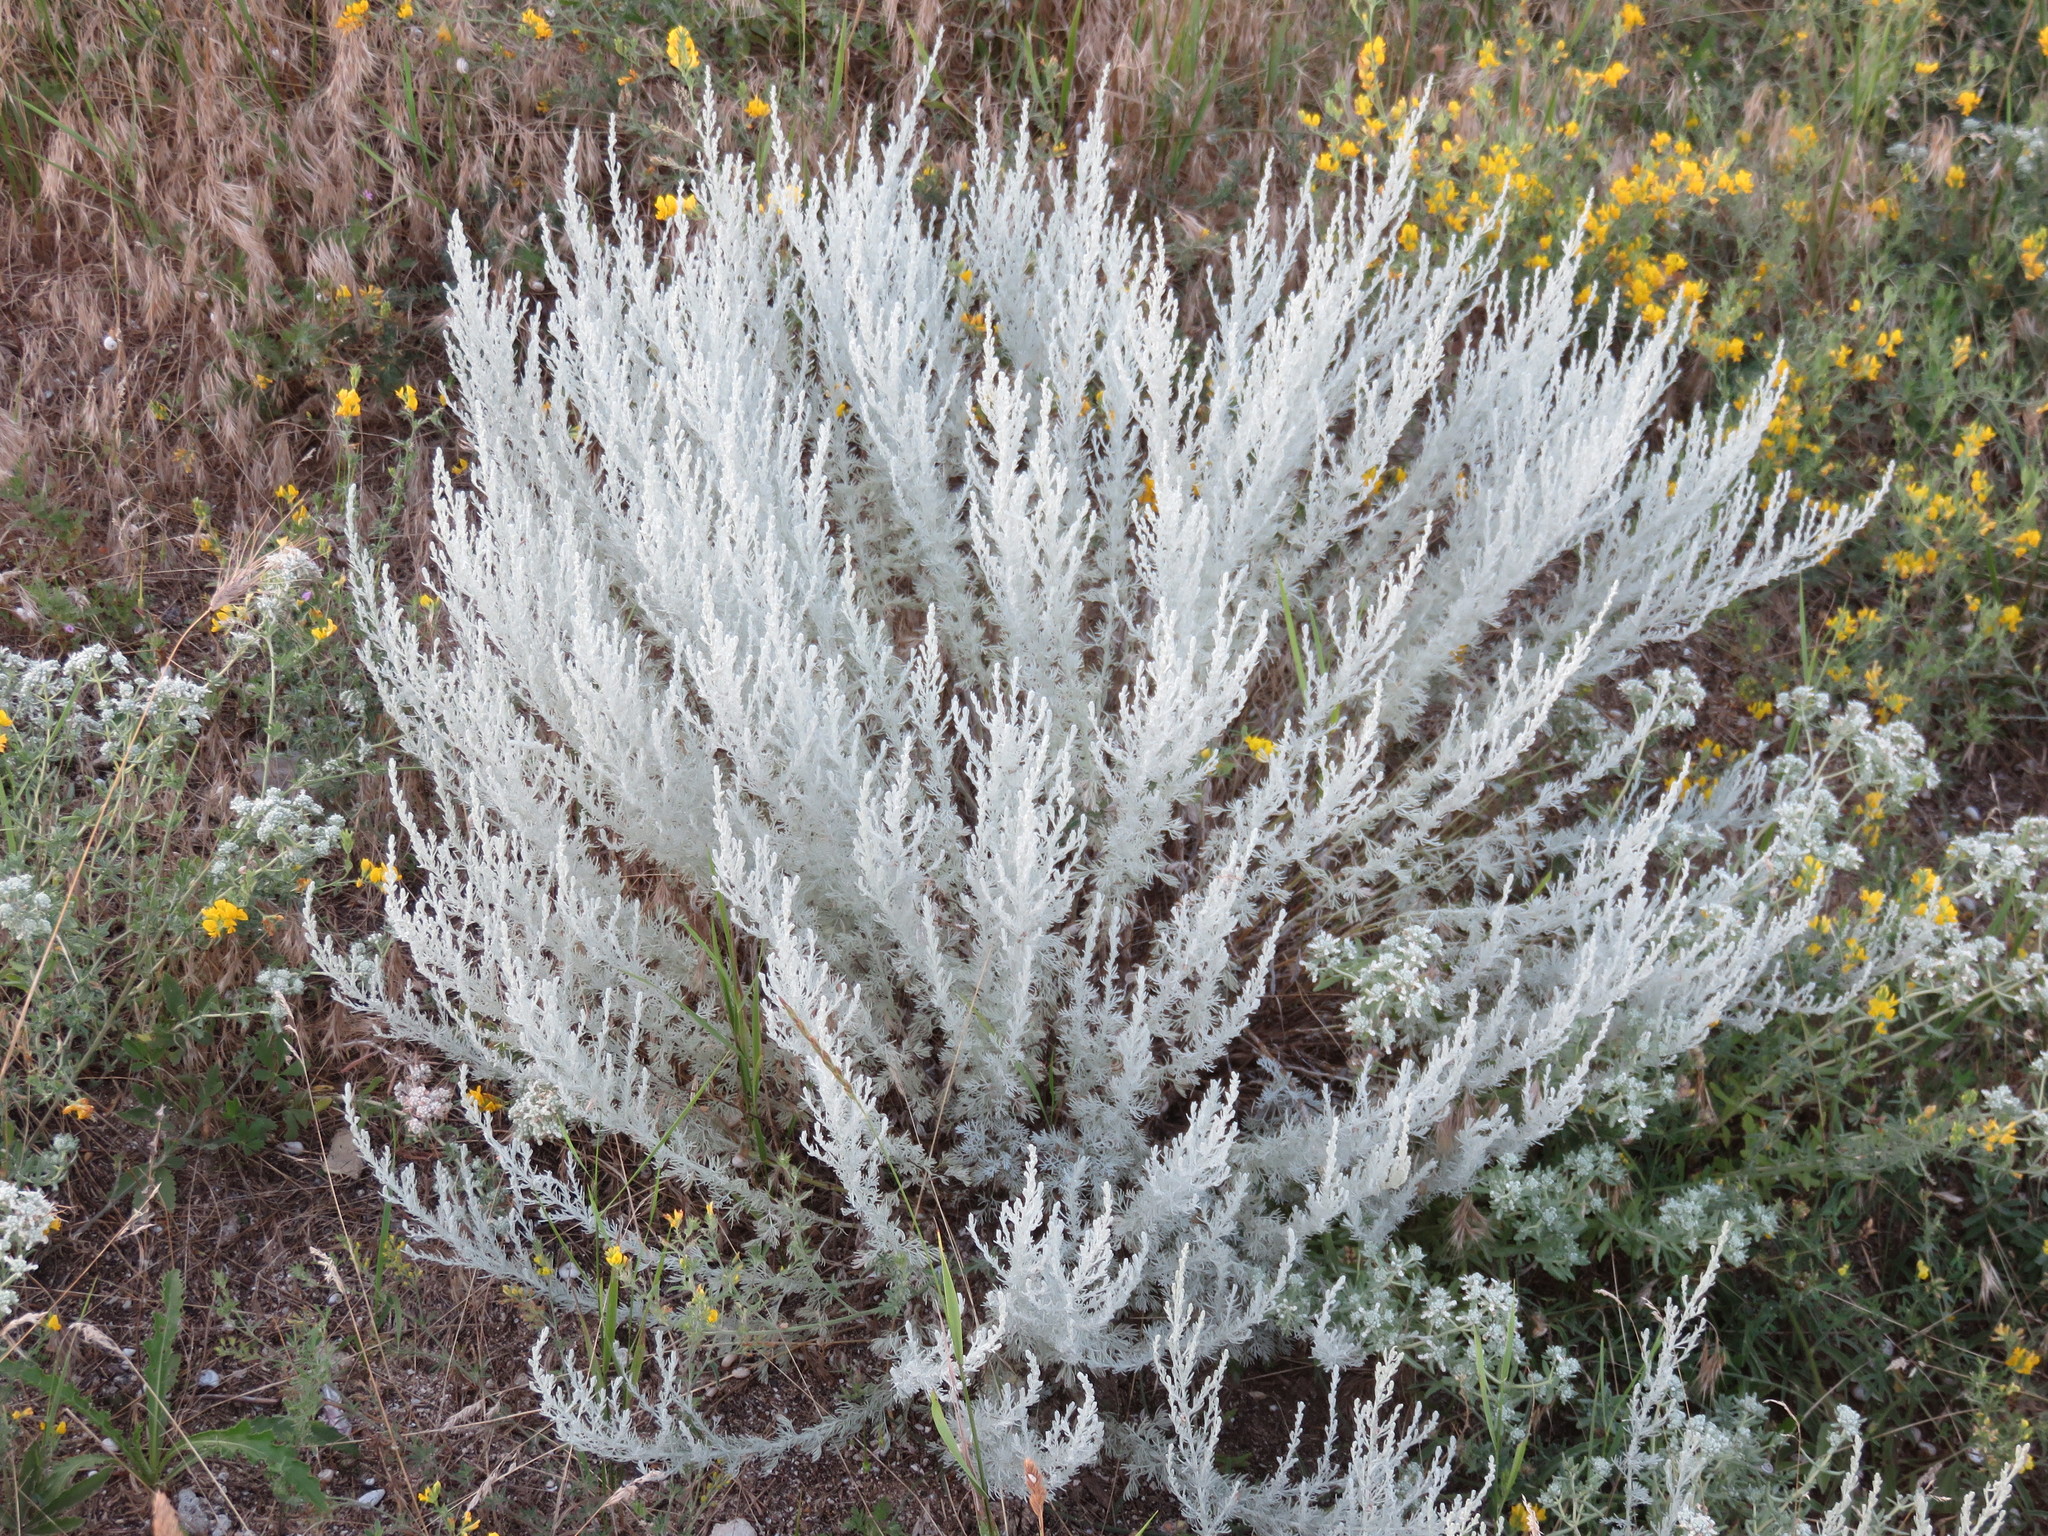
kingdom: Plantae
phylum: Tracheophyta
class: Magnoliopsida
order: Asterales
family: Asteraceae
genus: Artemisia
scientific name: Artemisia austriaca
